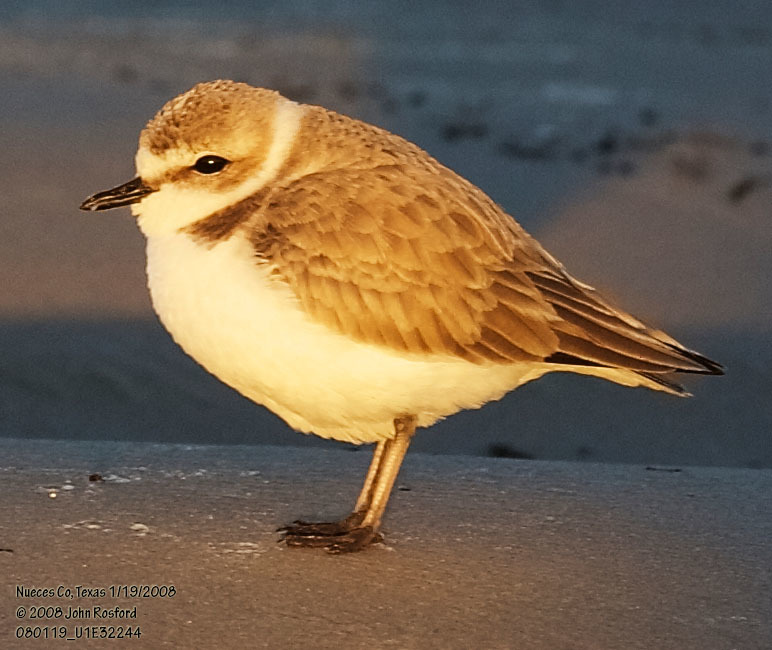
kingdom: Animalia
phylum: Chordata
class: Aves
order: Charadriiformes
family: Charadriidae
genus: Anarhynchus
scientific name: Anarhynchus
